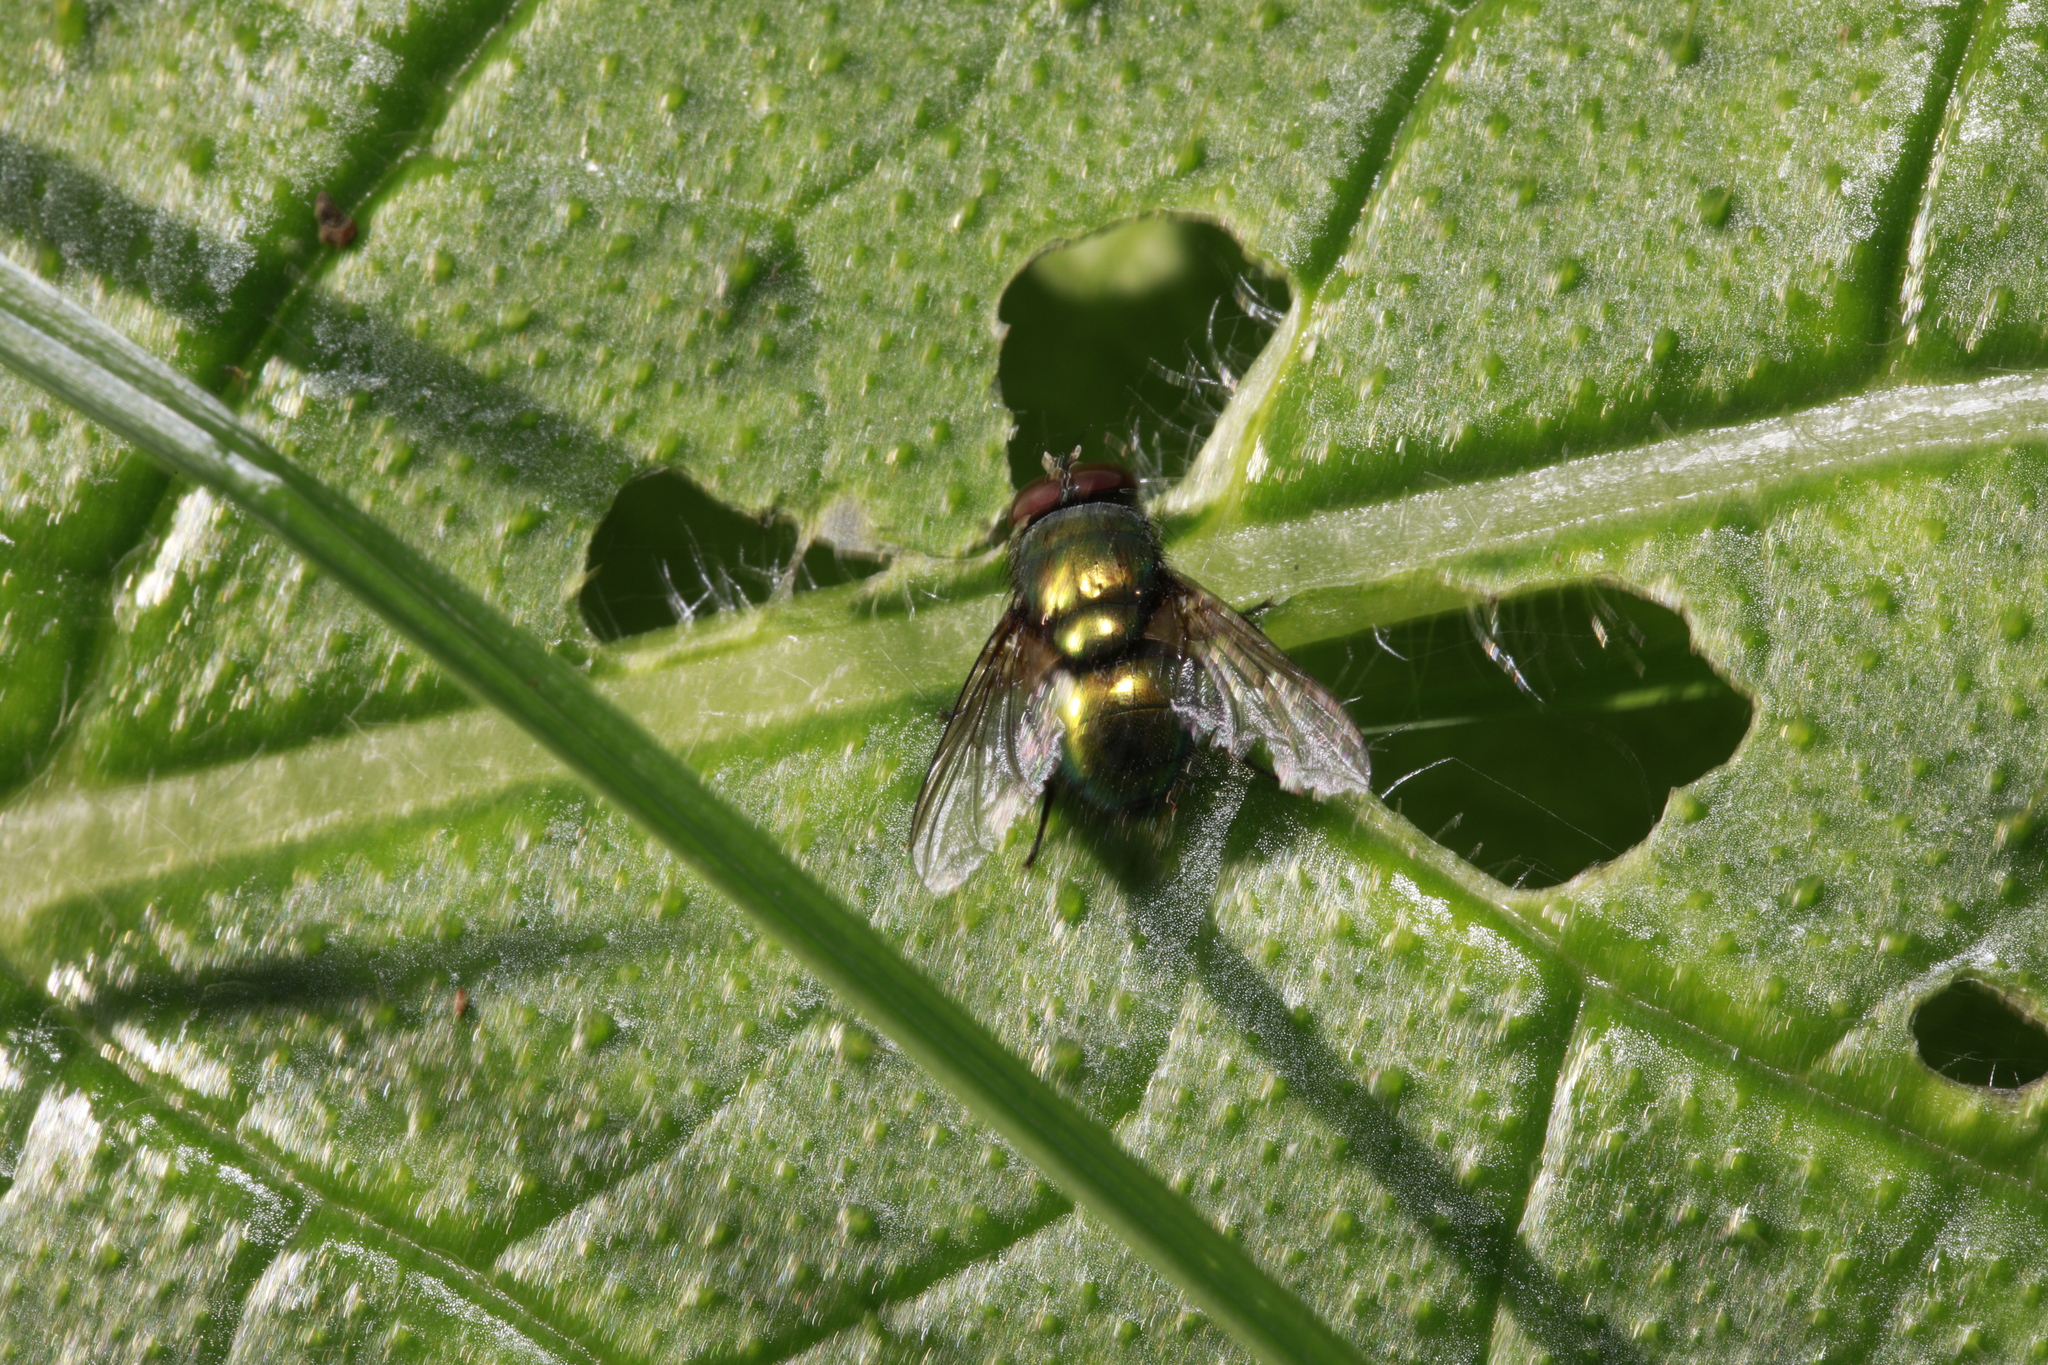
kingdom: Animalia
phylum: Arthropoda
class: Insecta
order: Diptera
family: Calliphoridae
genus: Lucilia
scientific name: Lucilia
